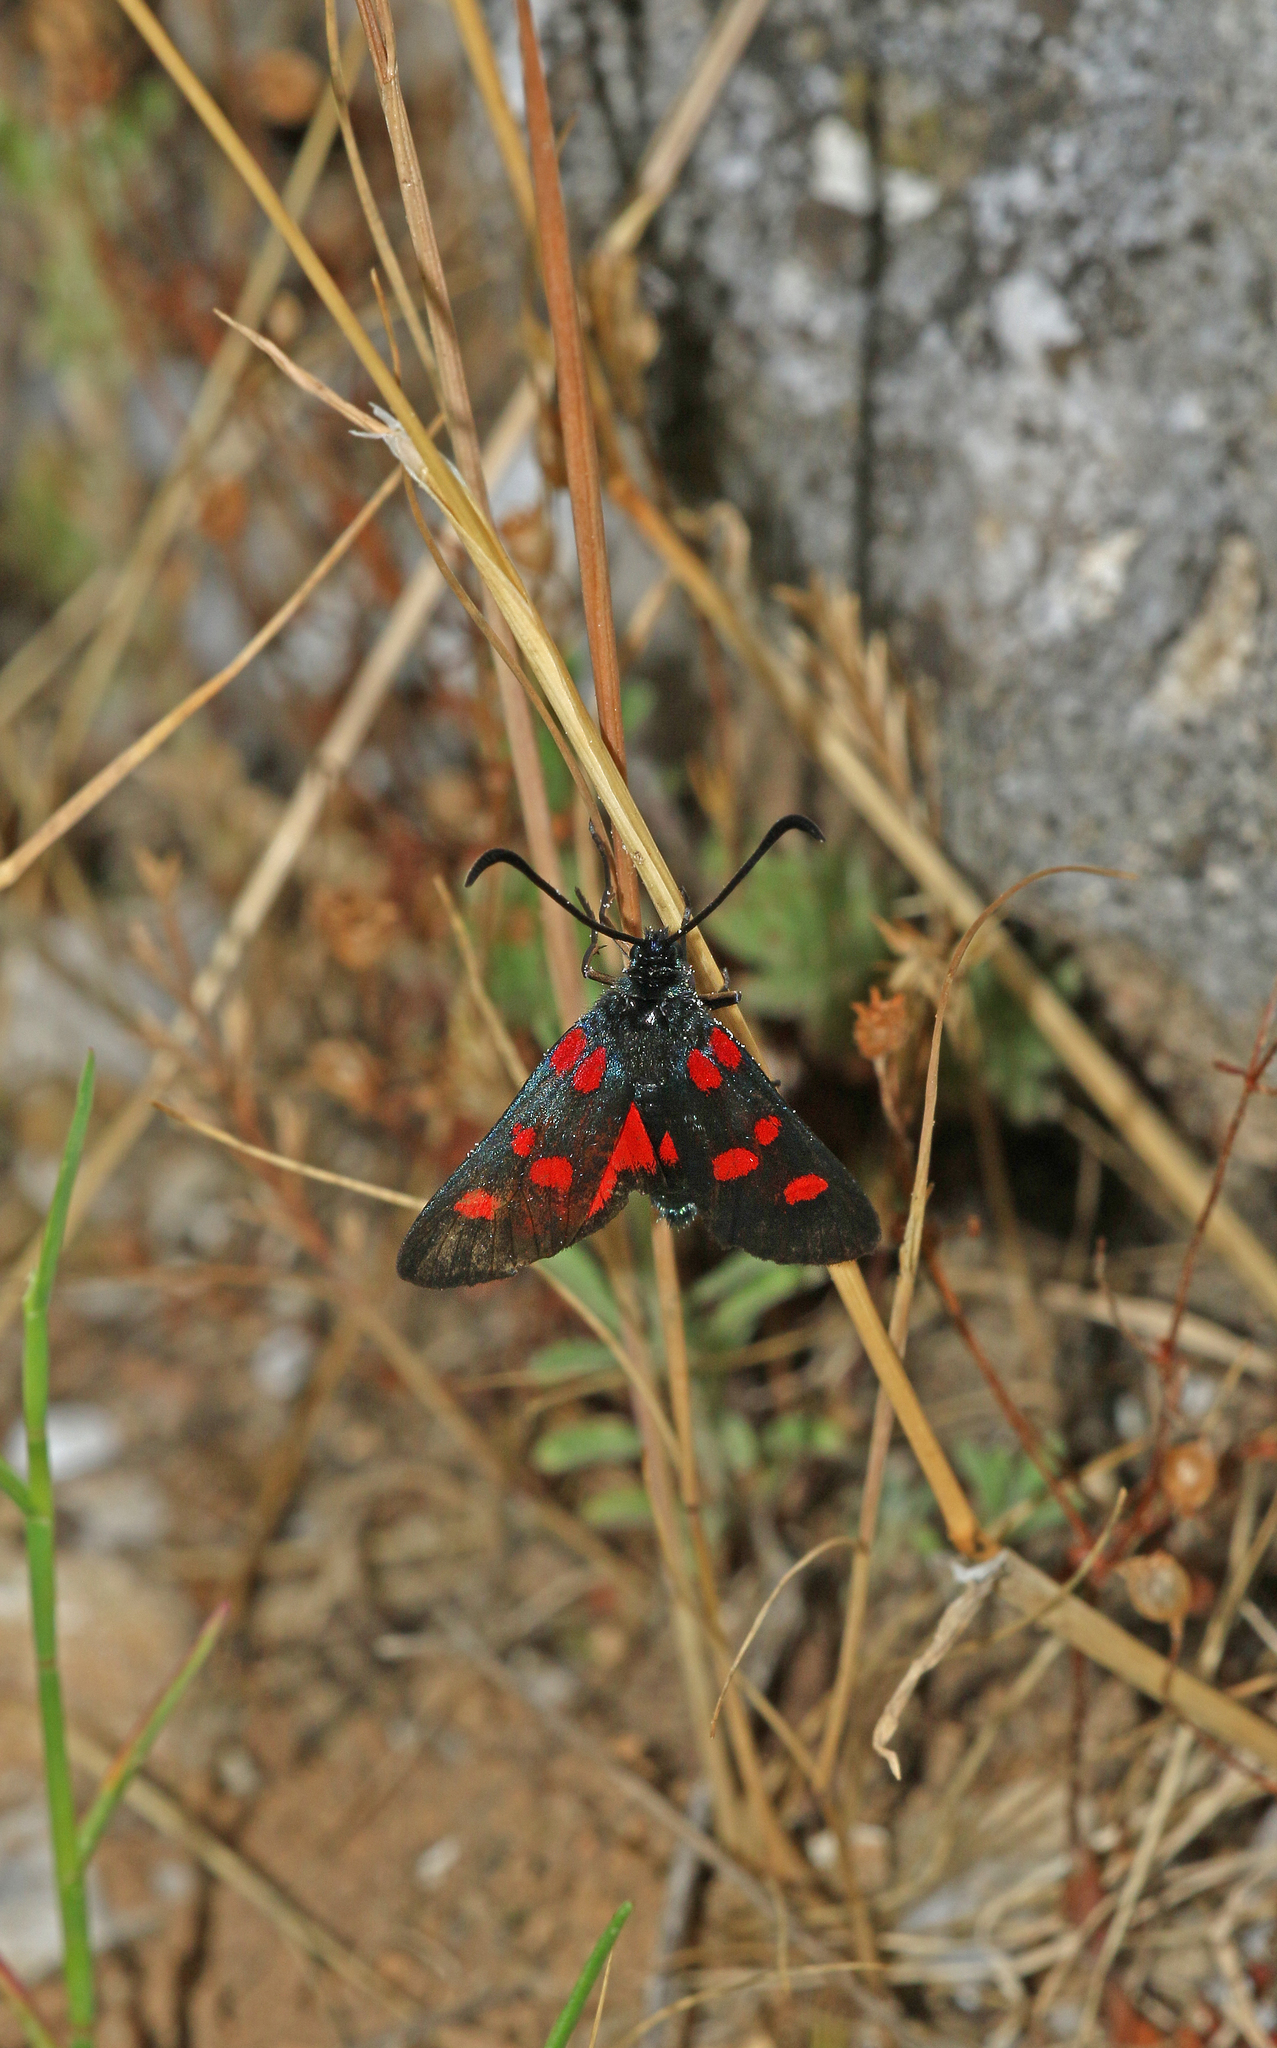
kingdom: Animalia
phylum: Arthropoda
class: Insecta
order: Lepidoptera
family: Zygaenidae
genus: Zygaena
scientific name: Zygaena lonicerae
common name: Narrow-bordered five-spot burnet
